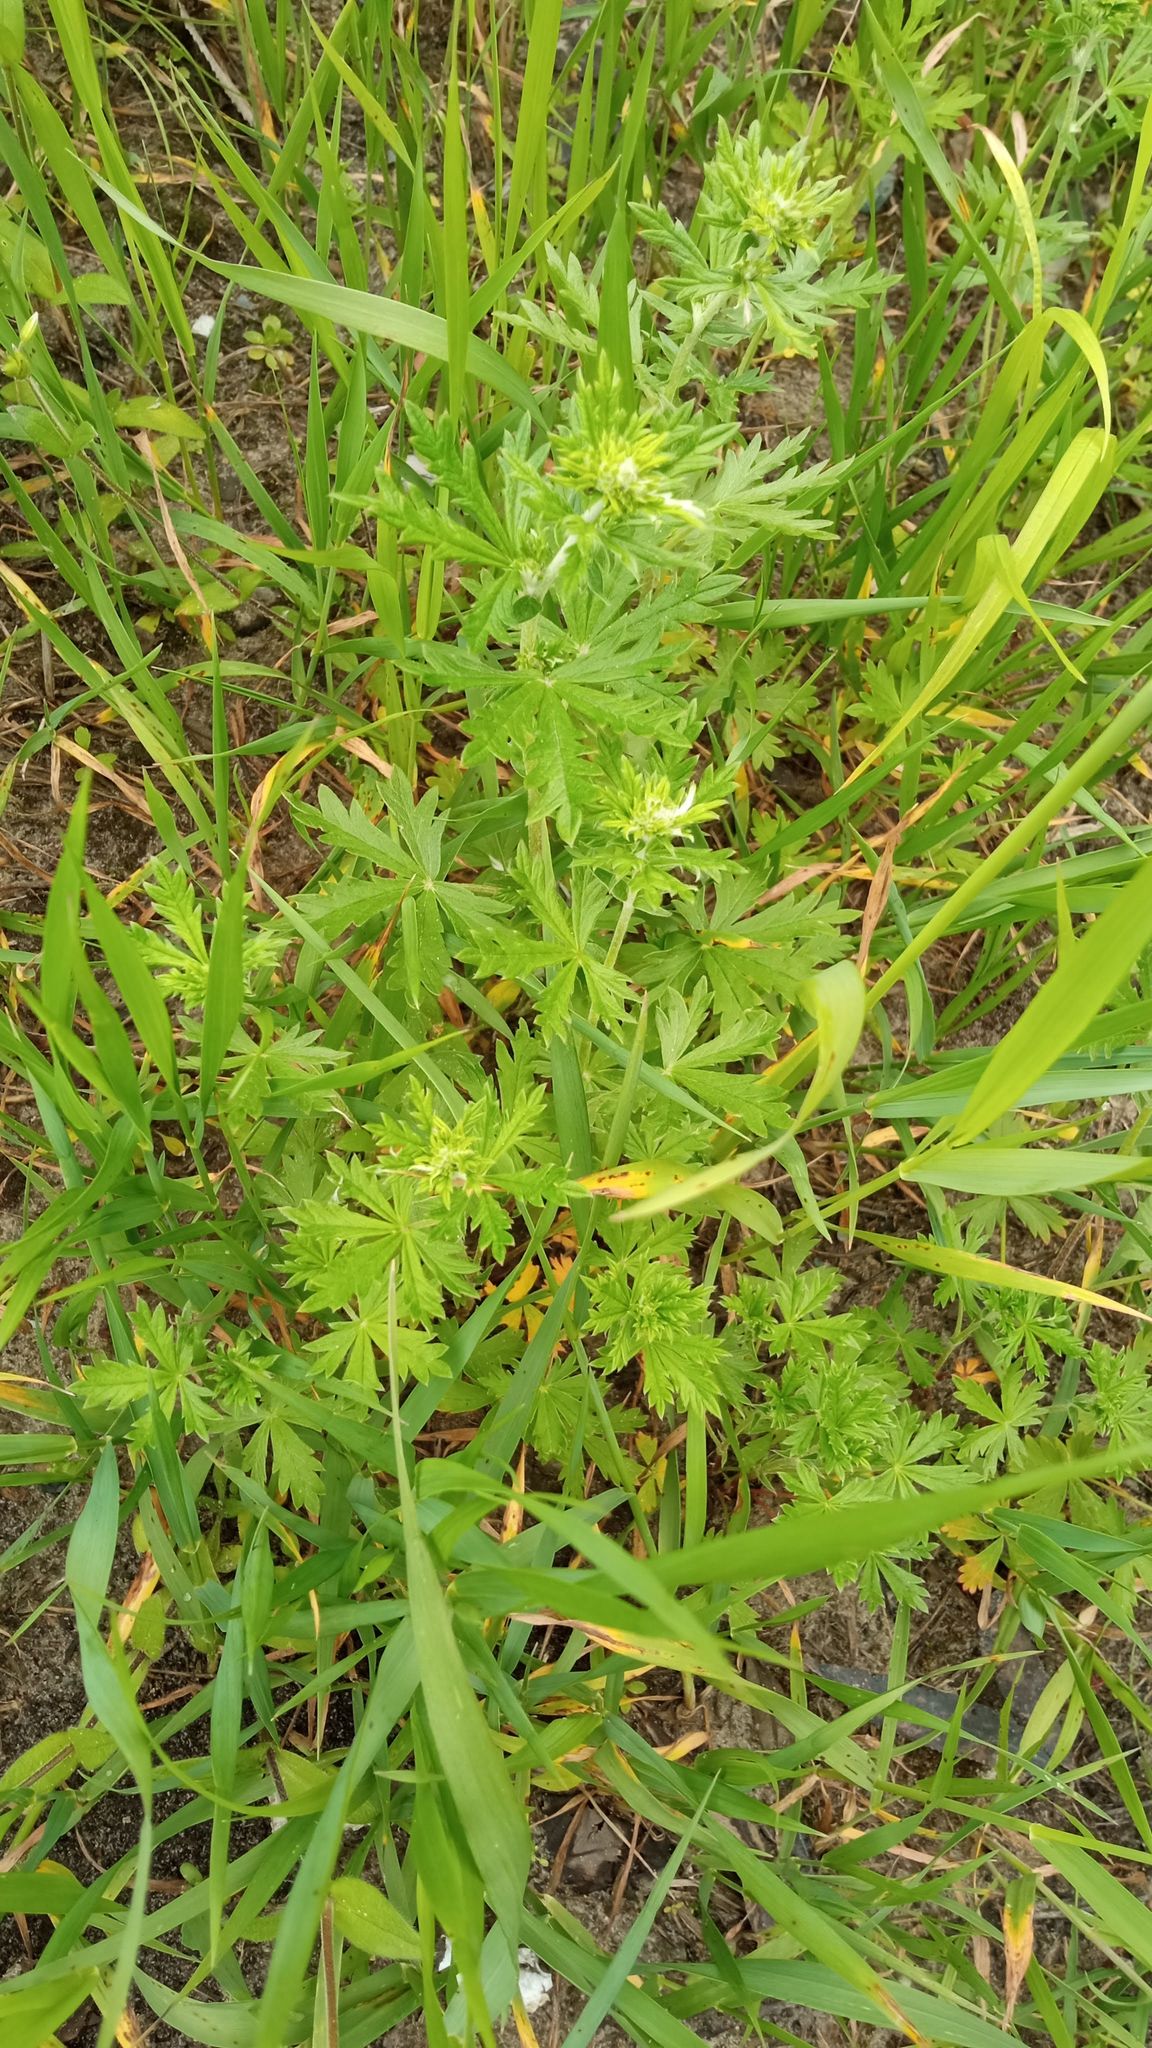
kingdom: Plantae
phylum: Tracheophyta
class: Magnoliopsida
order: Rosales
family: Rosaceae
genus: Potentilla
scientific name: Potentilla argentea
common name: Hoary cinquefoil
